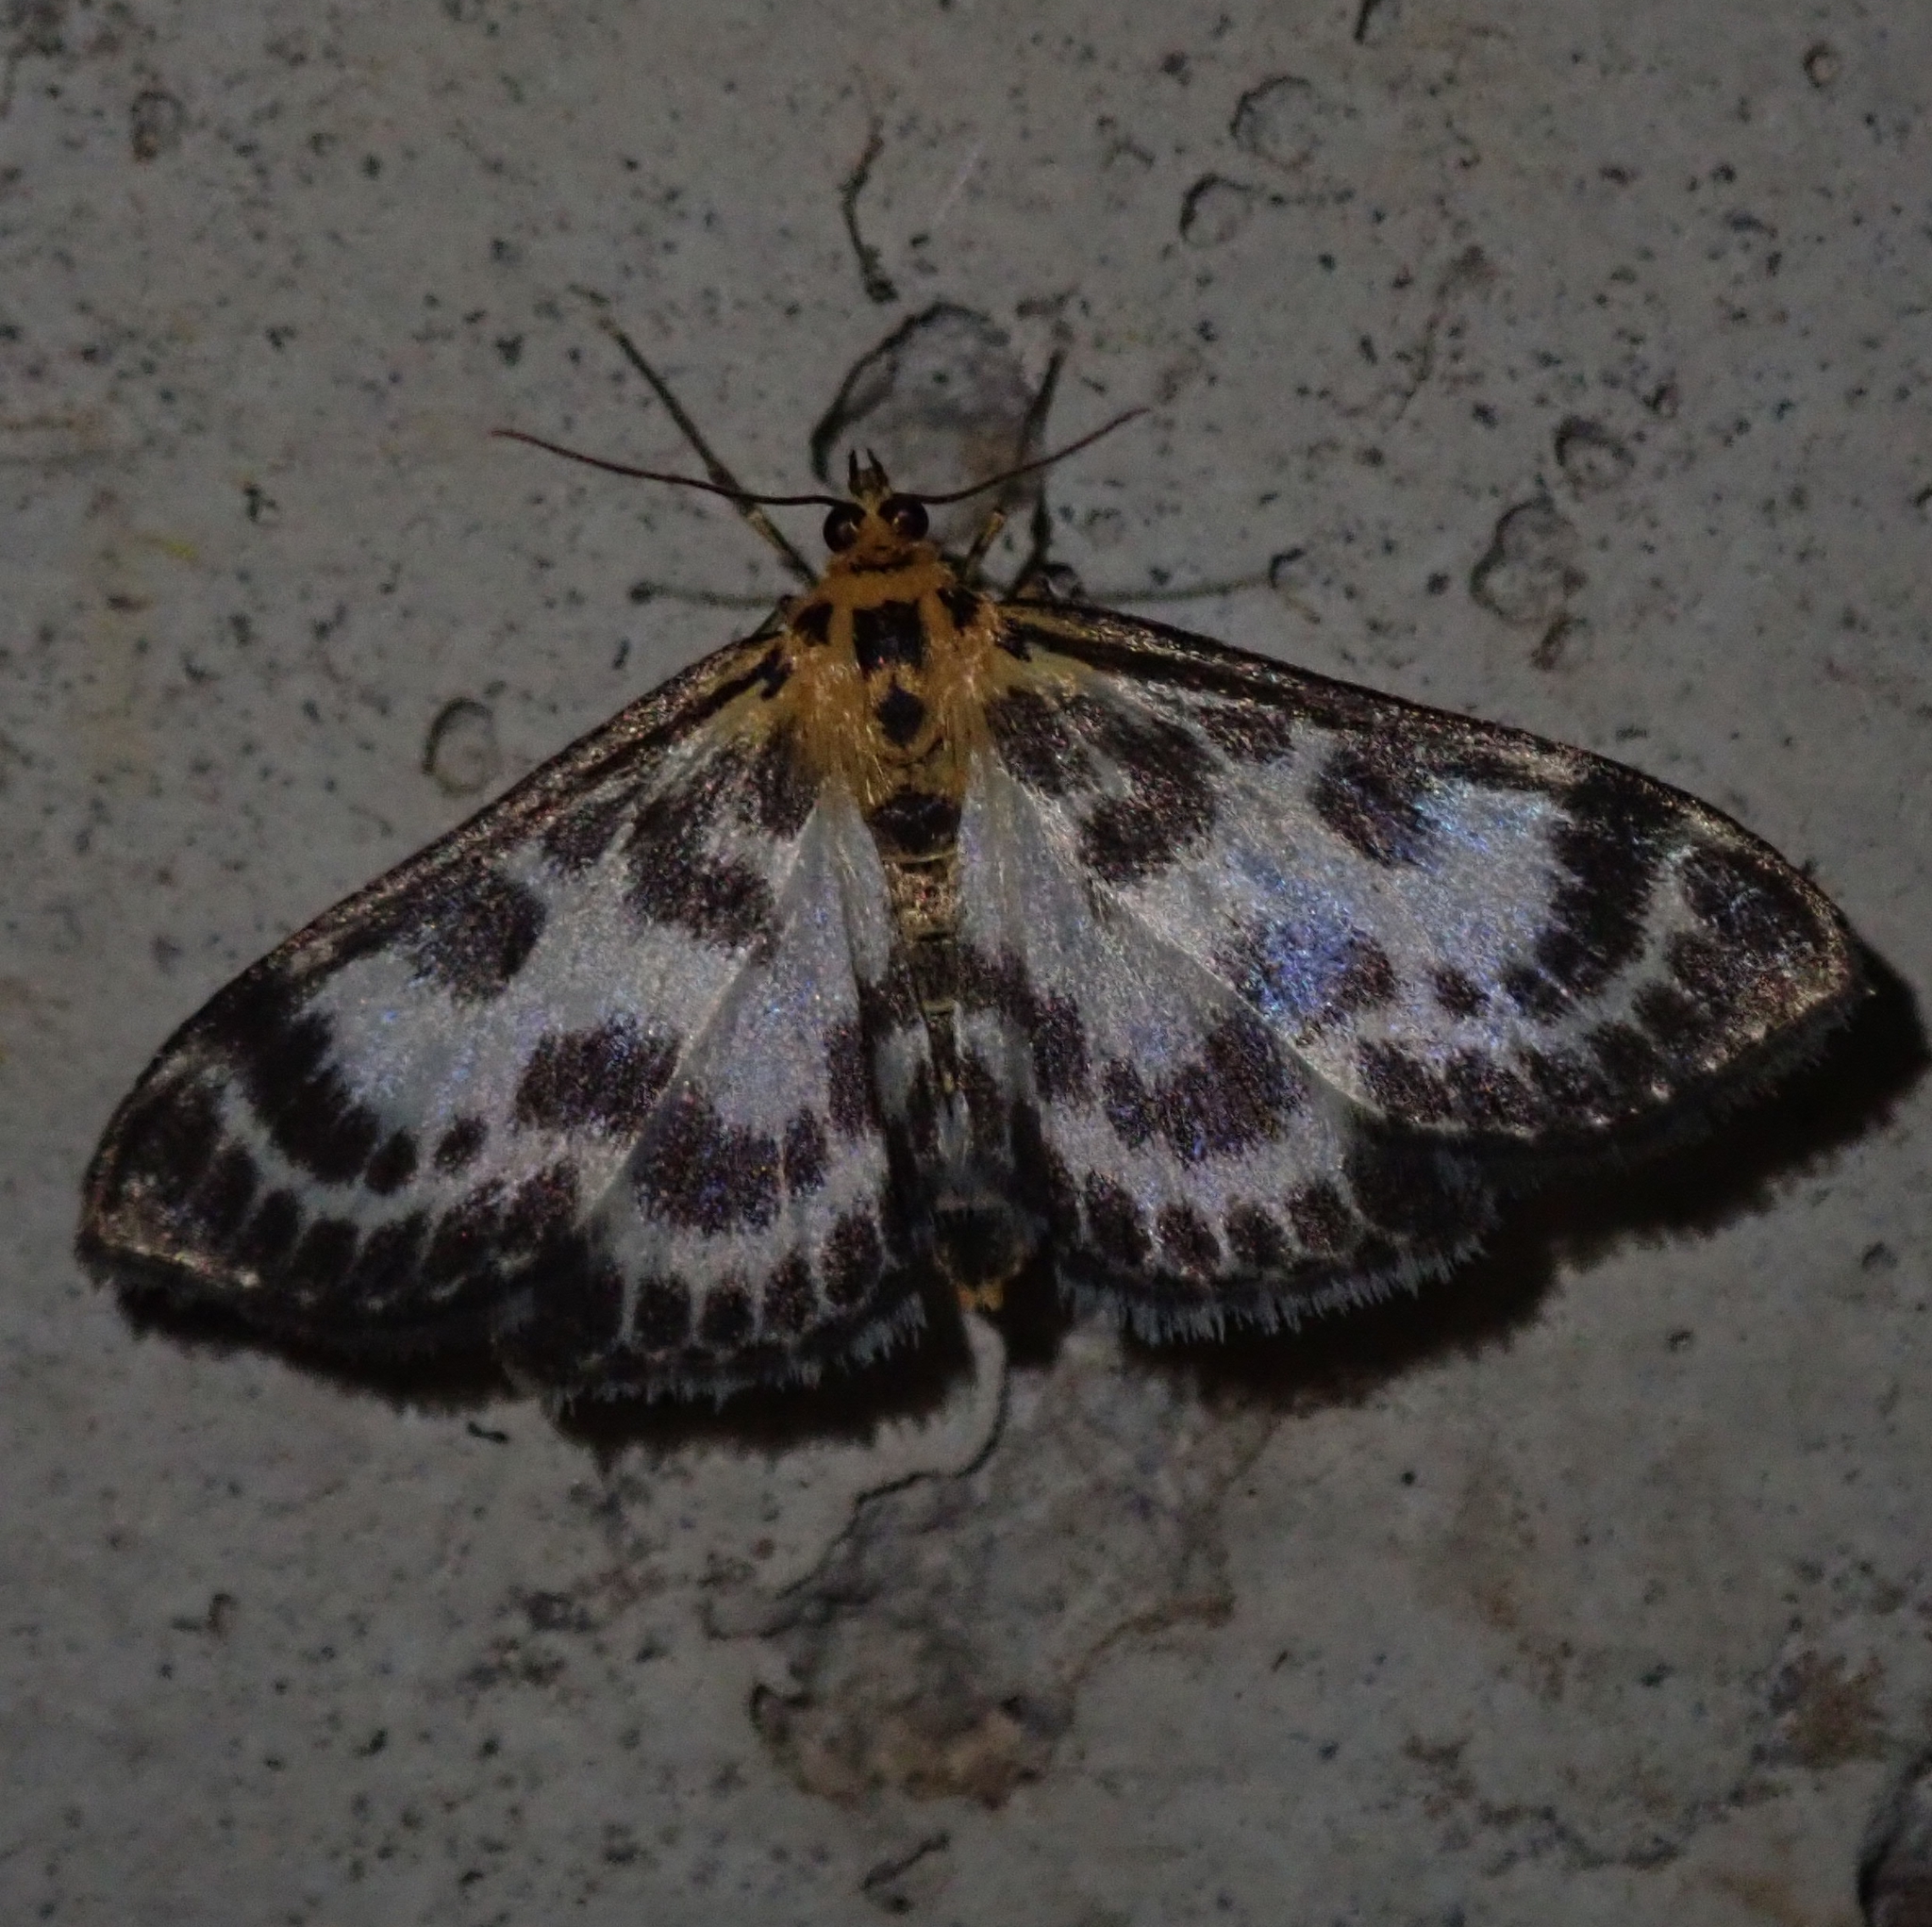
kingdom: Animalia
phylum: Arthropoda
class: Insecta
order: Lepidoptera
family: Crambidae
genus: Anania
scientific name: Anania hortulata
